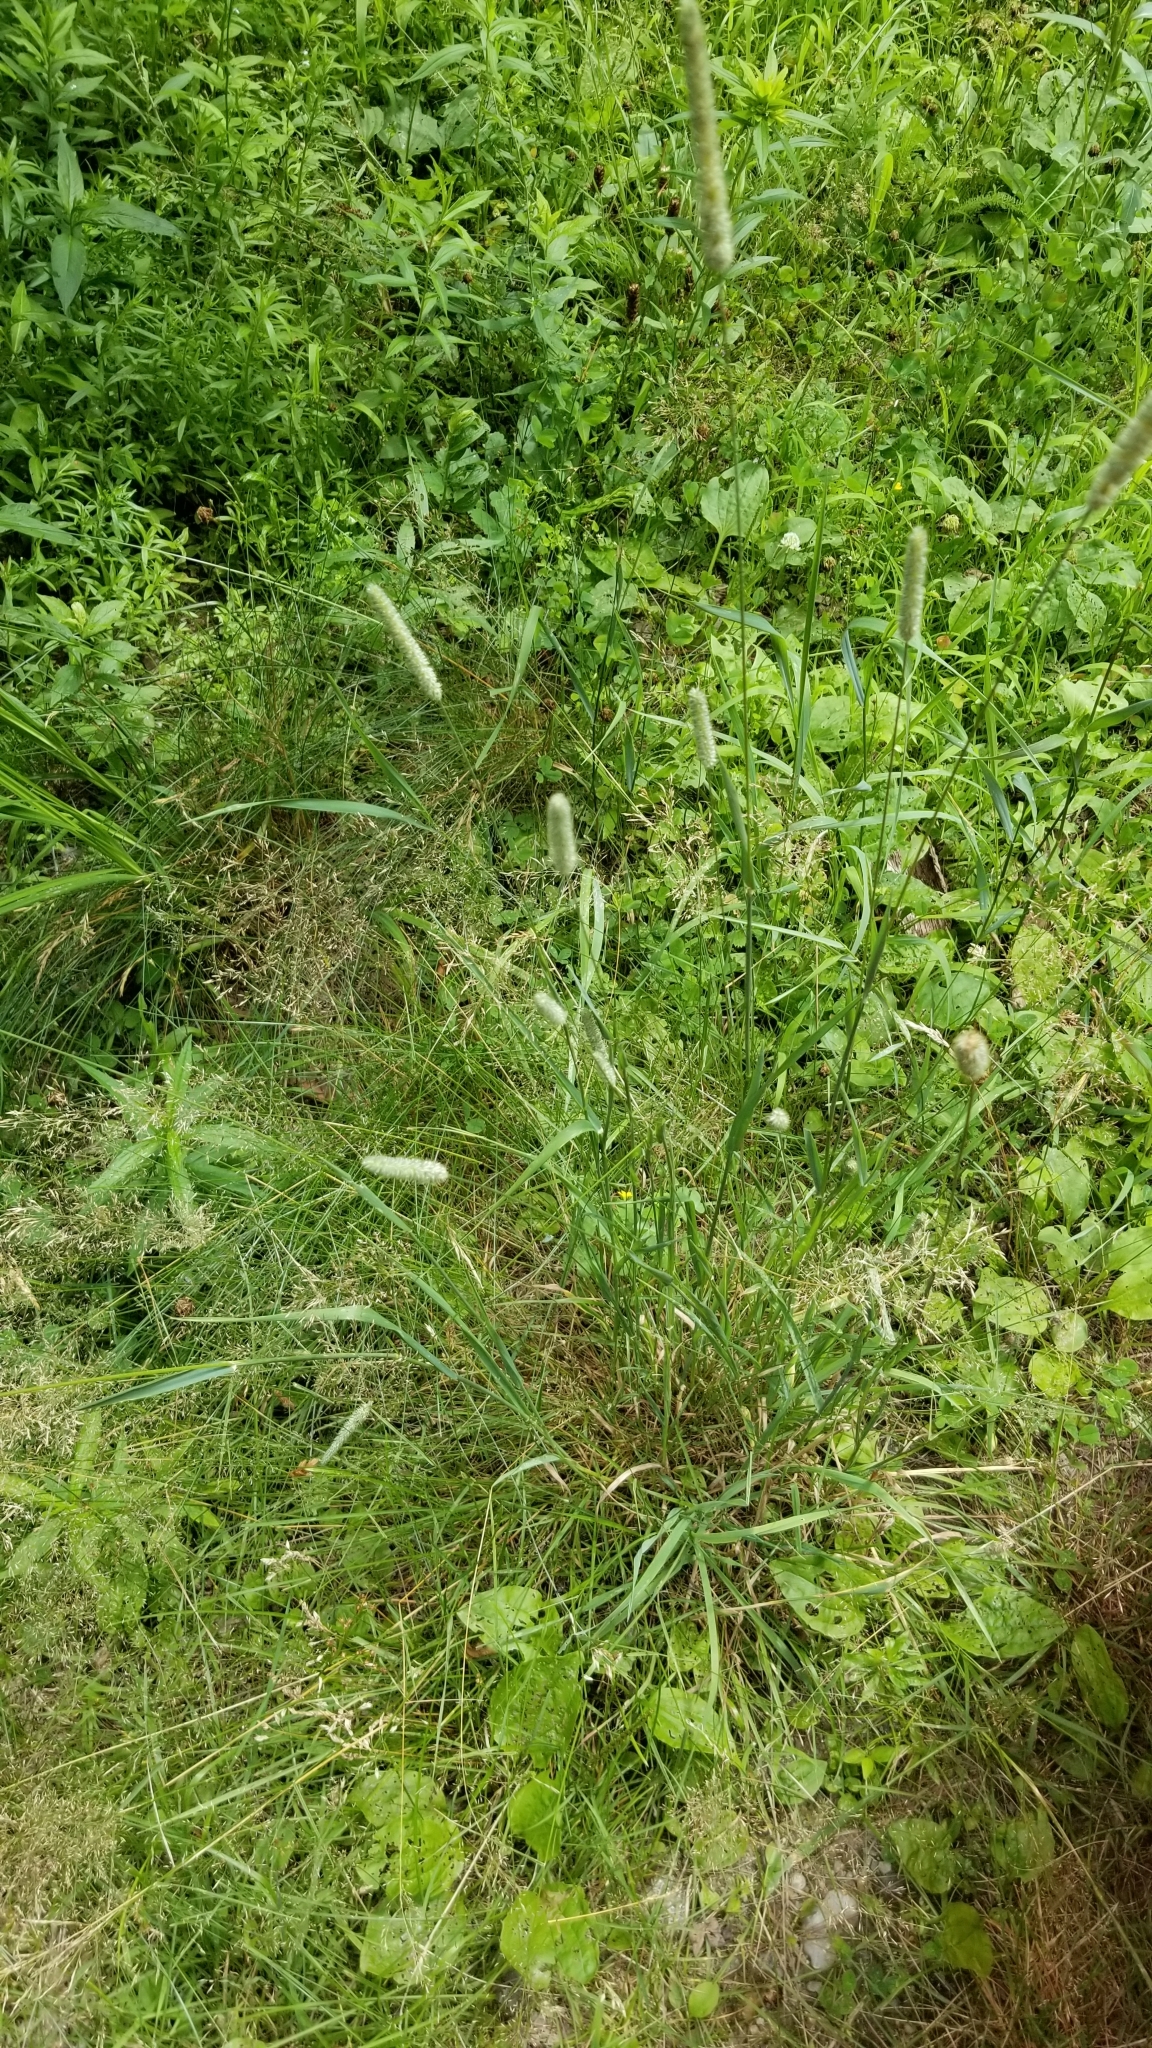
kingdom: Plantae
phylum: Tracheophyta
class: Liliopsida
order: Poales
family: Poaceae
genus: Phleum
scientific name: Phleum pratense
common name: Timothy grass
